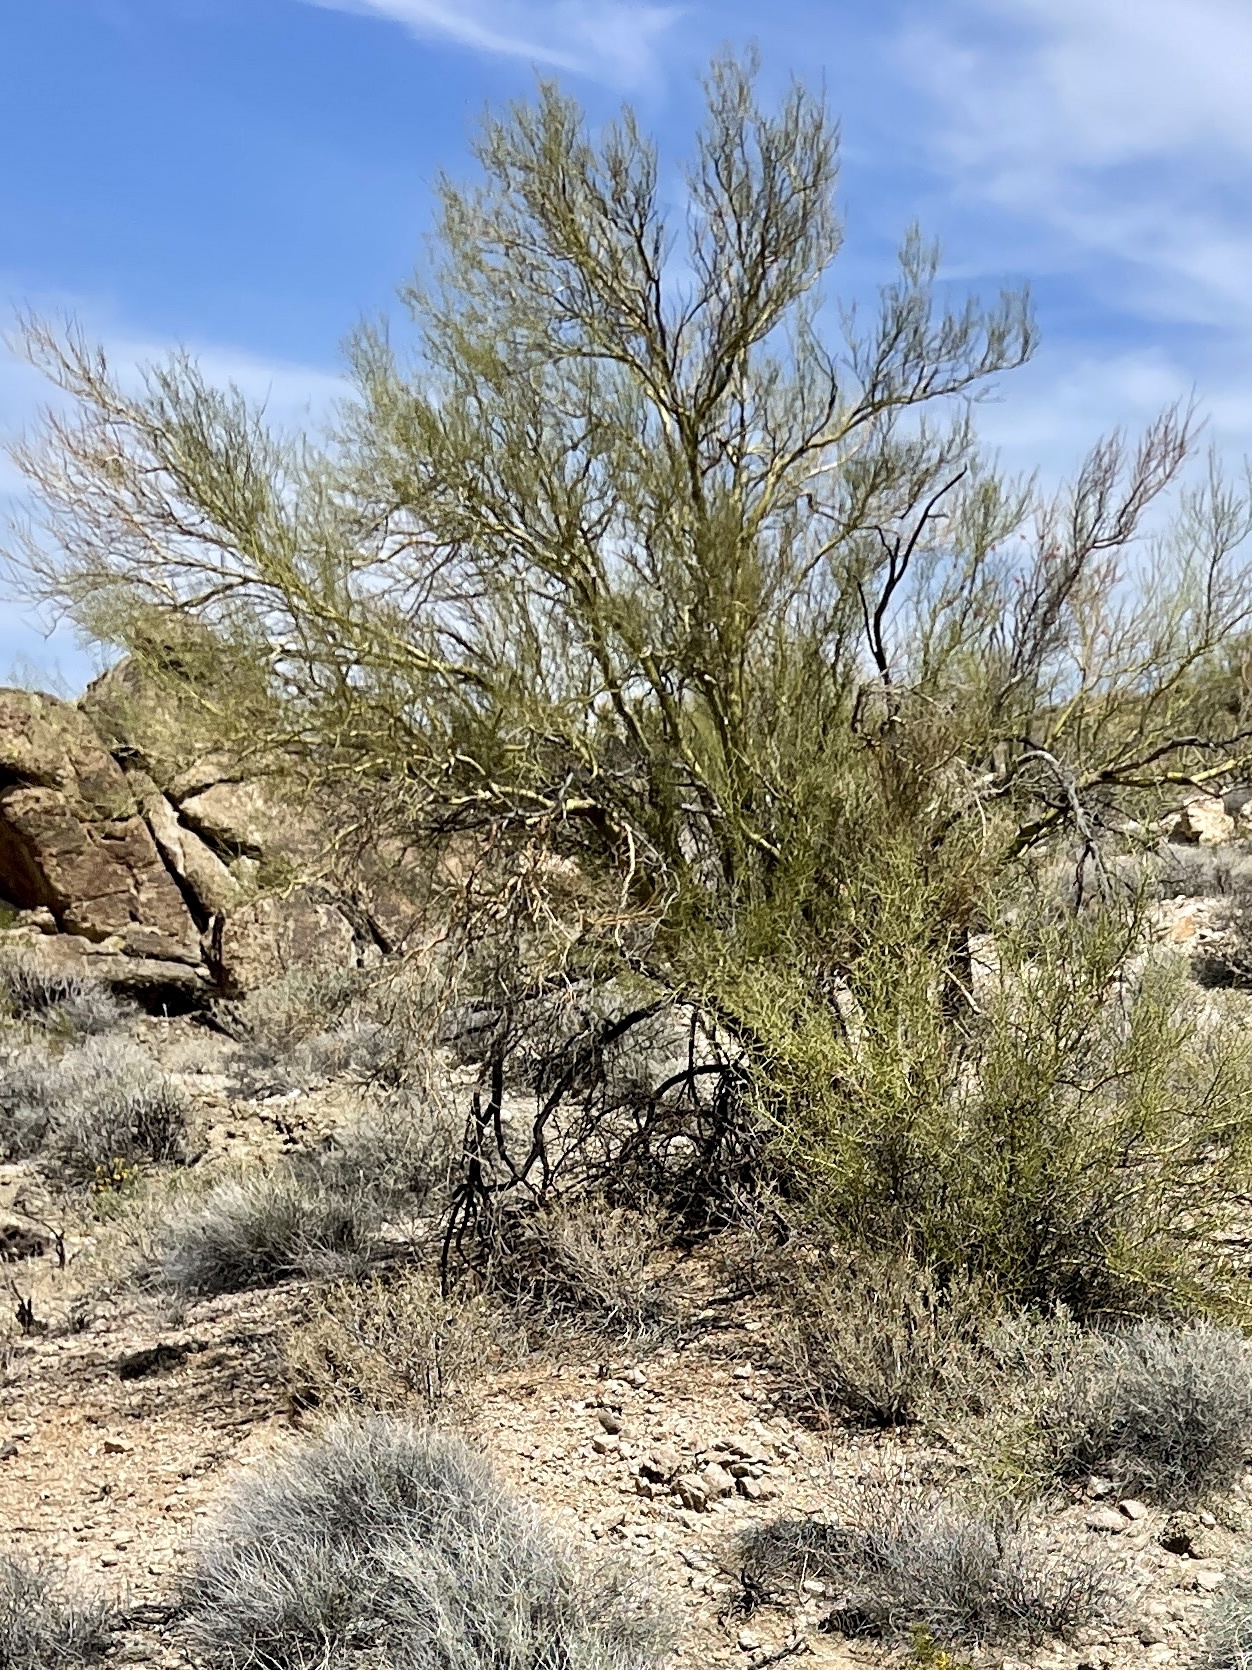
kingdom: Plantae
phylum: Tracheophyta
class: Magnoliopsida
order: Fabales
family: Fabaceae
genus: Parkinsonia
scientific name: Parkinsonia microphylla
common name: Yellow paloverde
